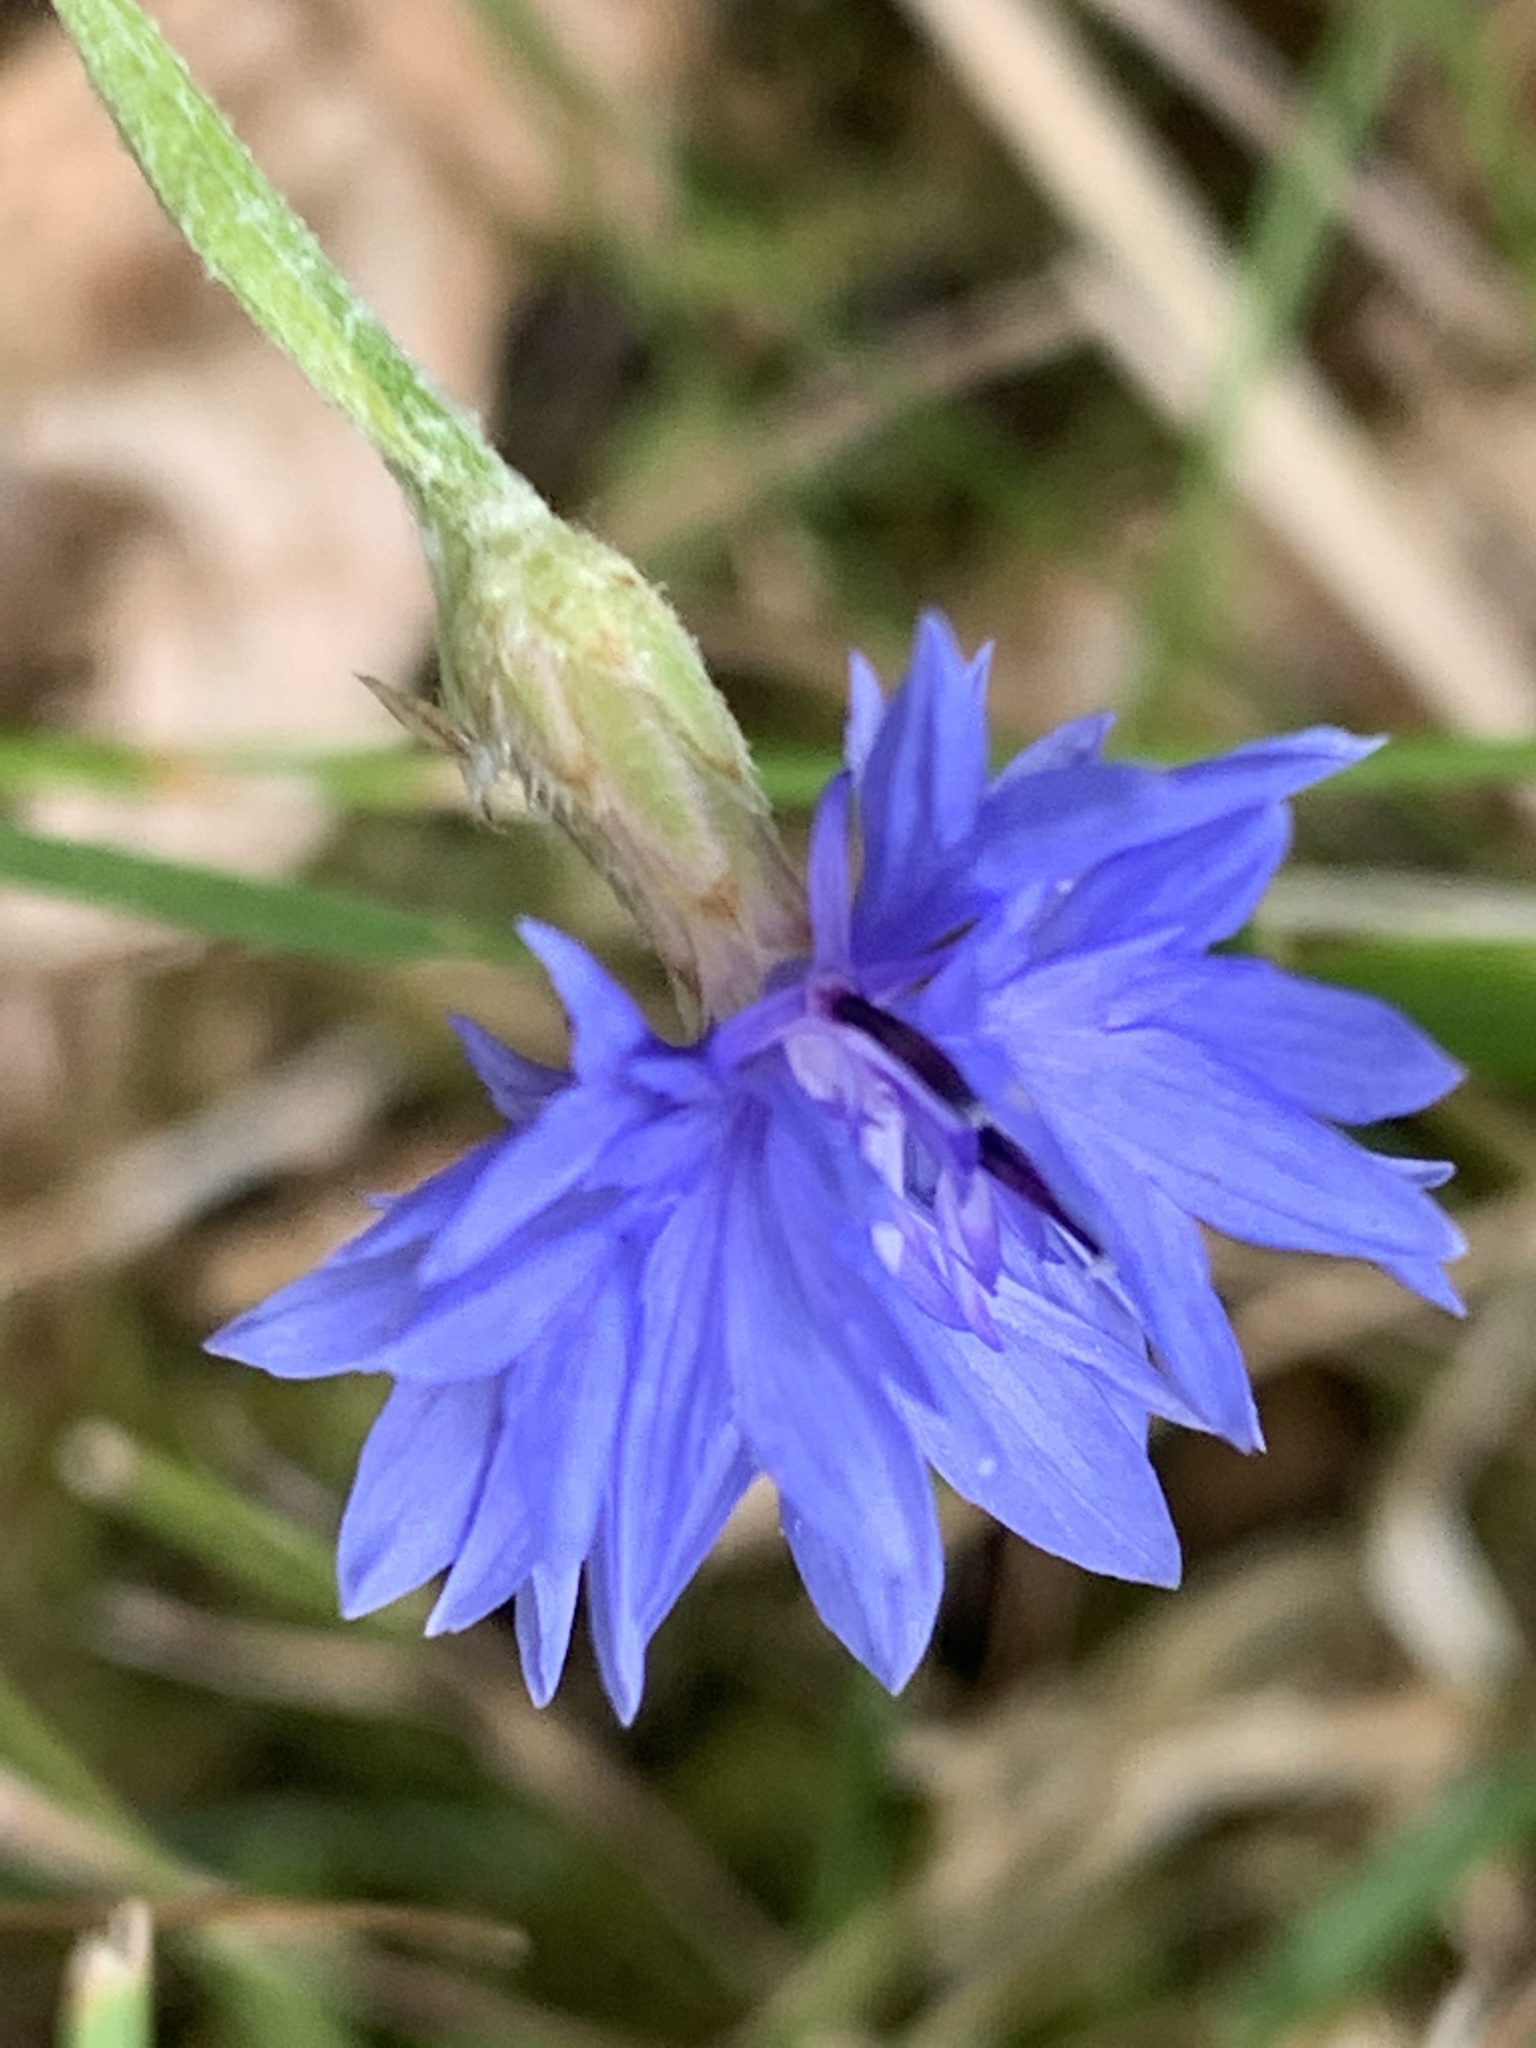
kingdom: Plantae
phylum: Tracheophyta
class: Magnoliopsida
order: Asterales
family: Asteraceae
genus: Centaurea
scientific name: Centaurea cyanus
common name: Cornflower
